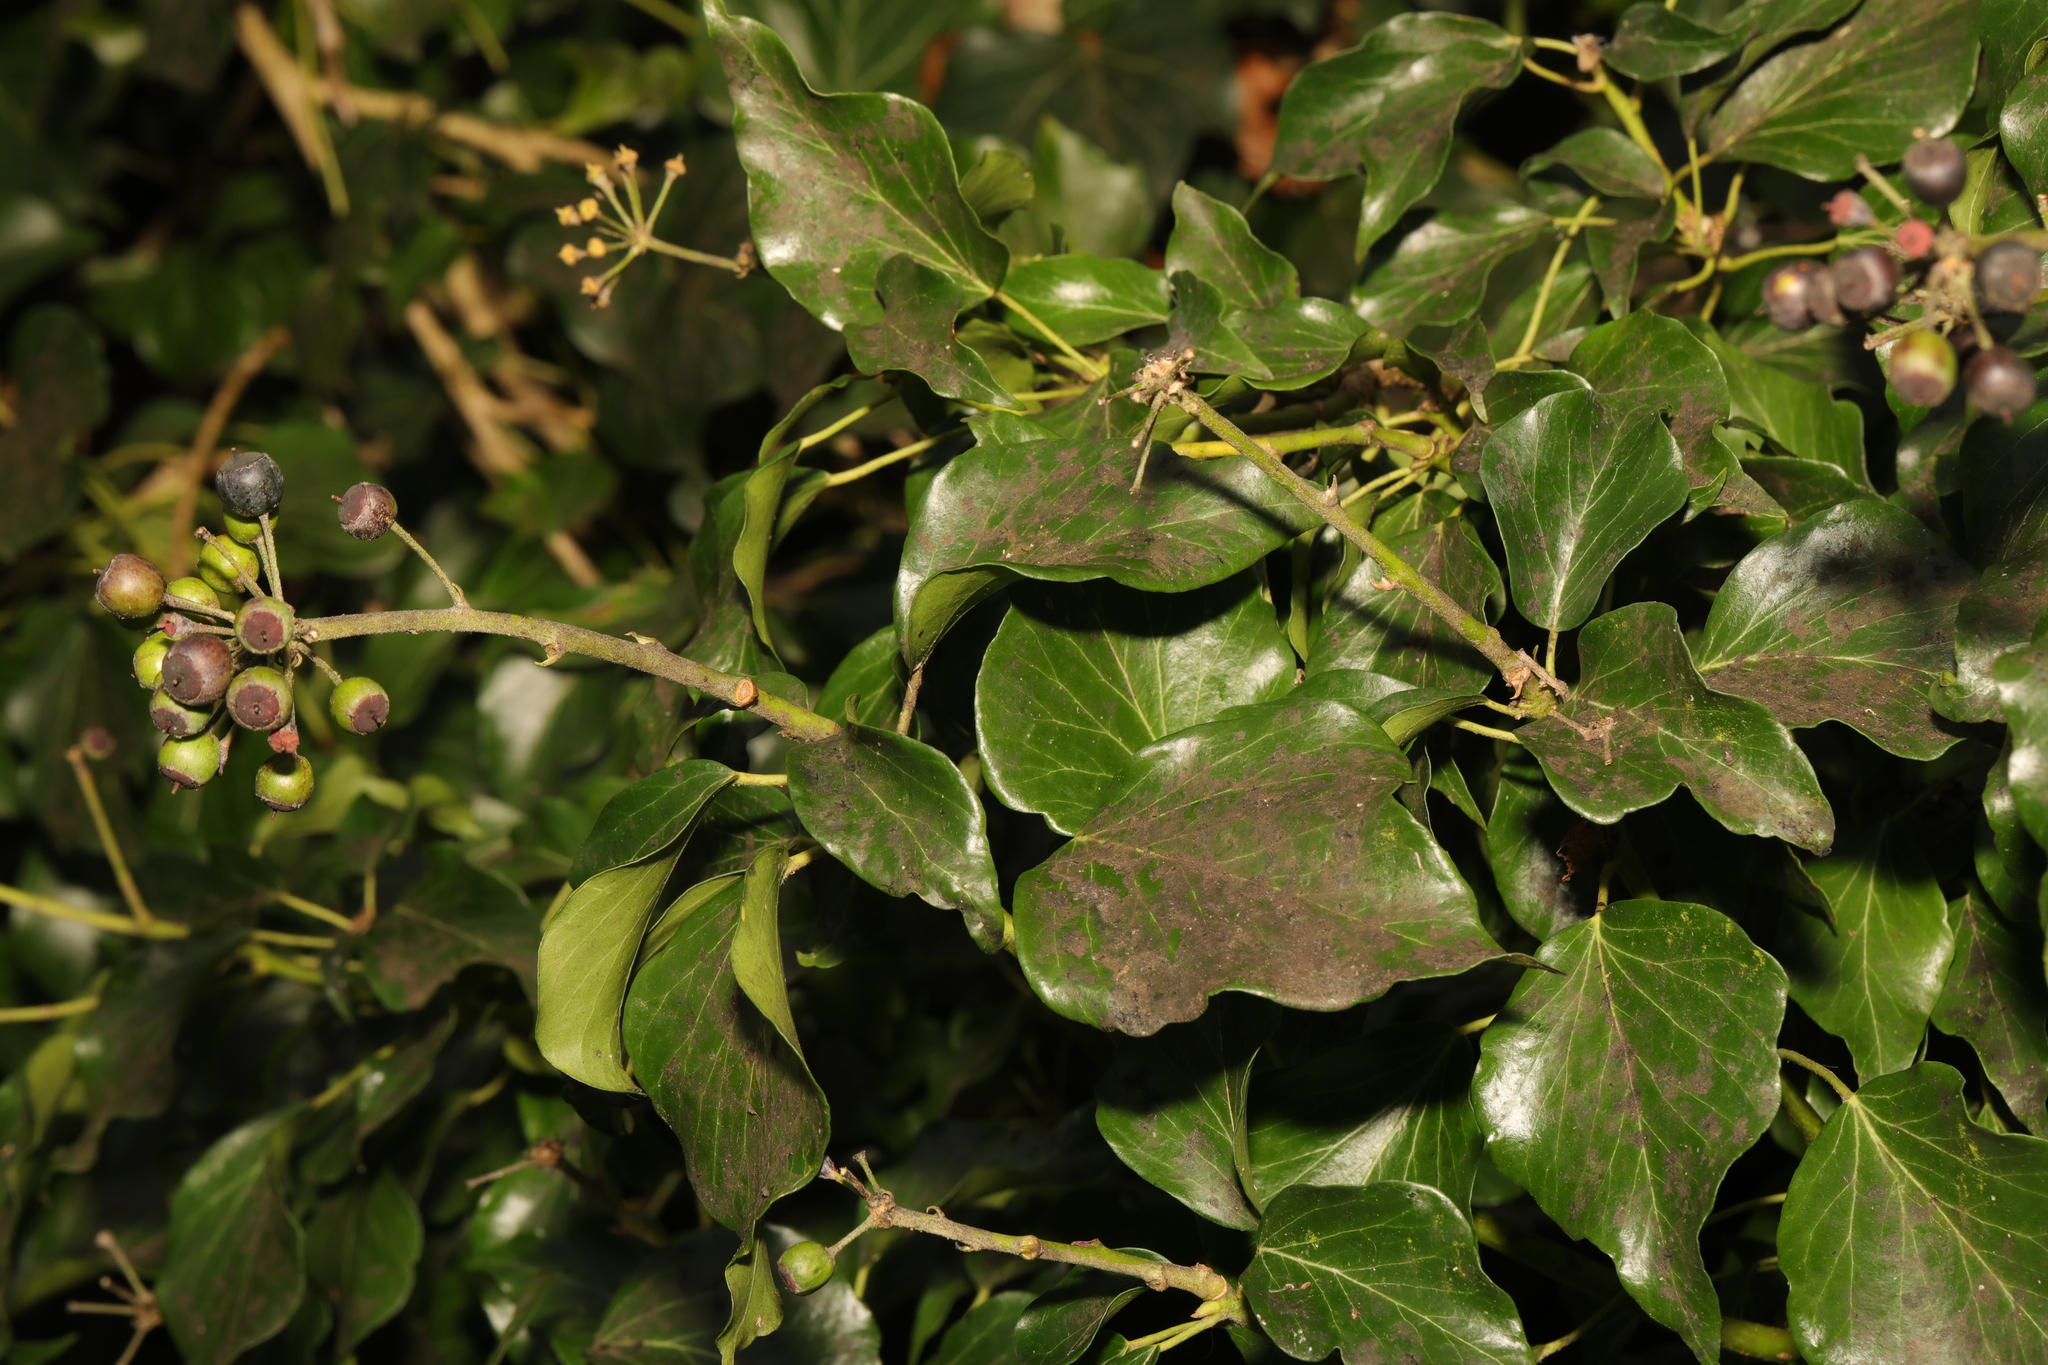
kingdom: Plantae
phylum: Tracheophyta
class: Magnoliopsida
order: Apiales
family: Araliaceae
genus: Hedera
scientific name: Hedera helix
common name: Ivy
